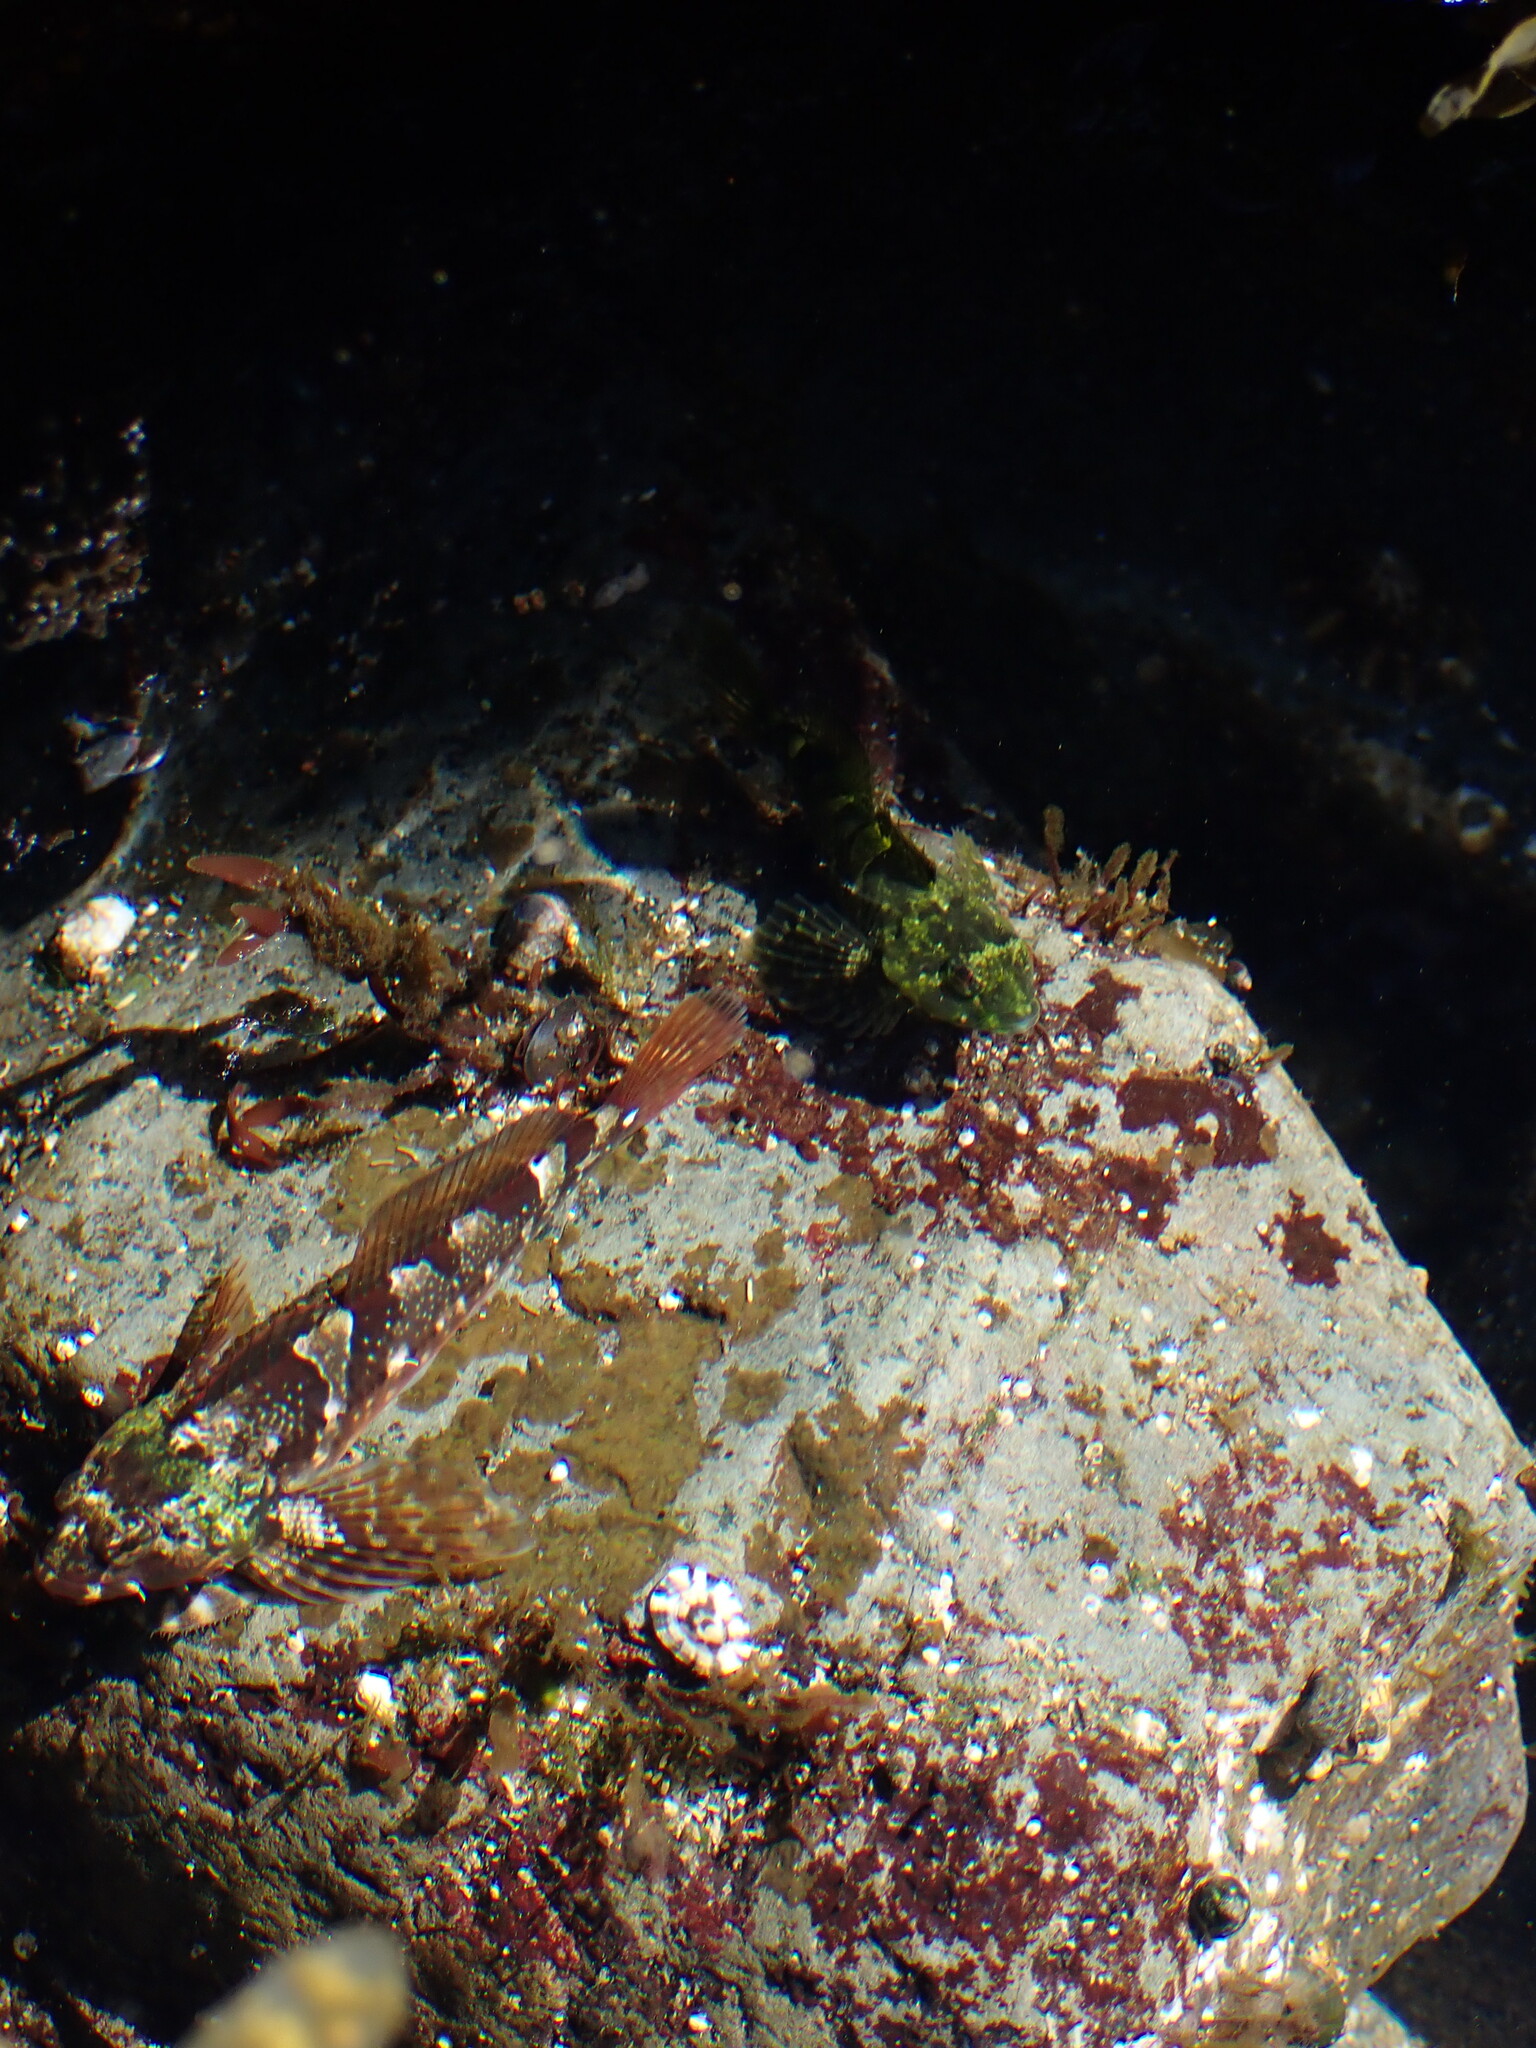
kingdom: Animalia
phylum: Chordata
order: Scorpaeniformes
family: Cottidae
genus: Oligocottus
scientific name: Oligocottus maculosus
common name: Tidepool sculpin
